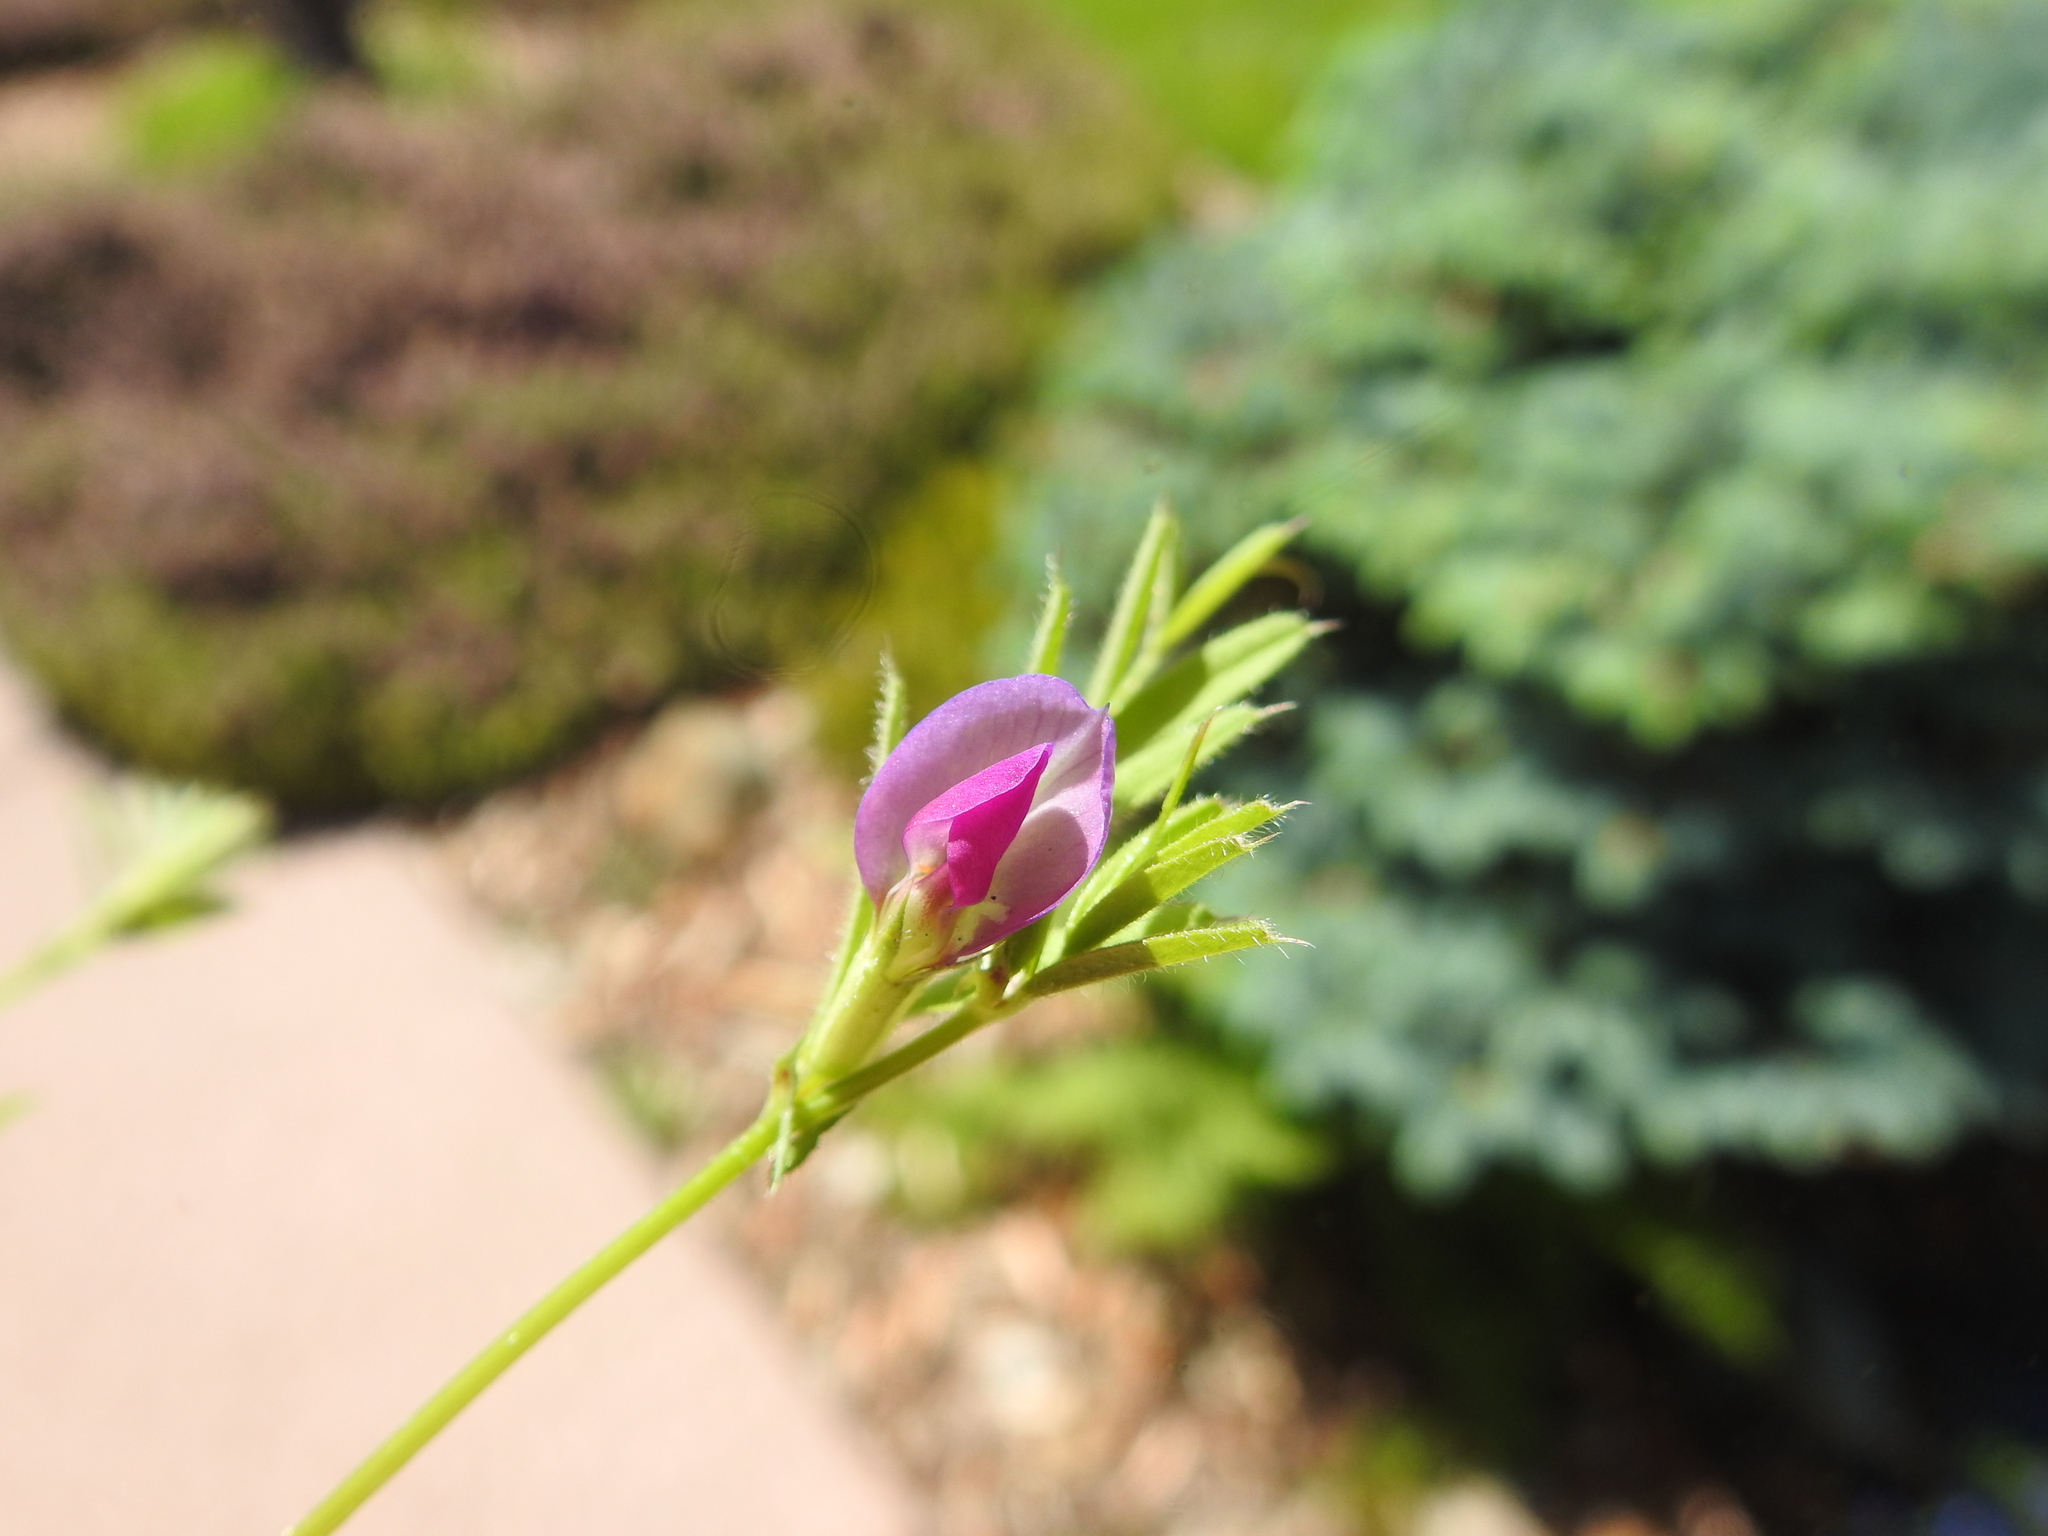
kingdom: Plantae
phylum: Tracheophyta
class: Magnoliopsida
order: Fabales
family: Fabaceae
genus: Vicia
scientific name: Vicia sativa
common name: Garden vetch
